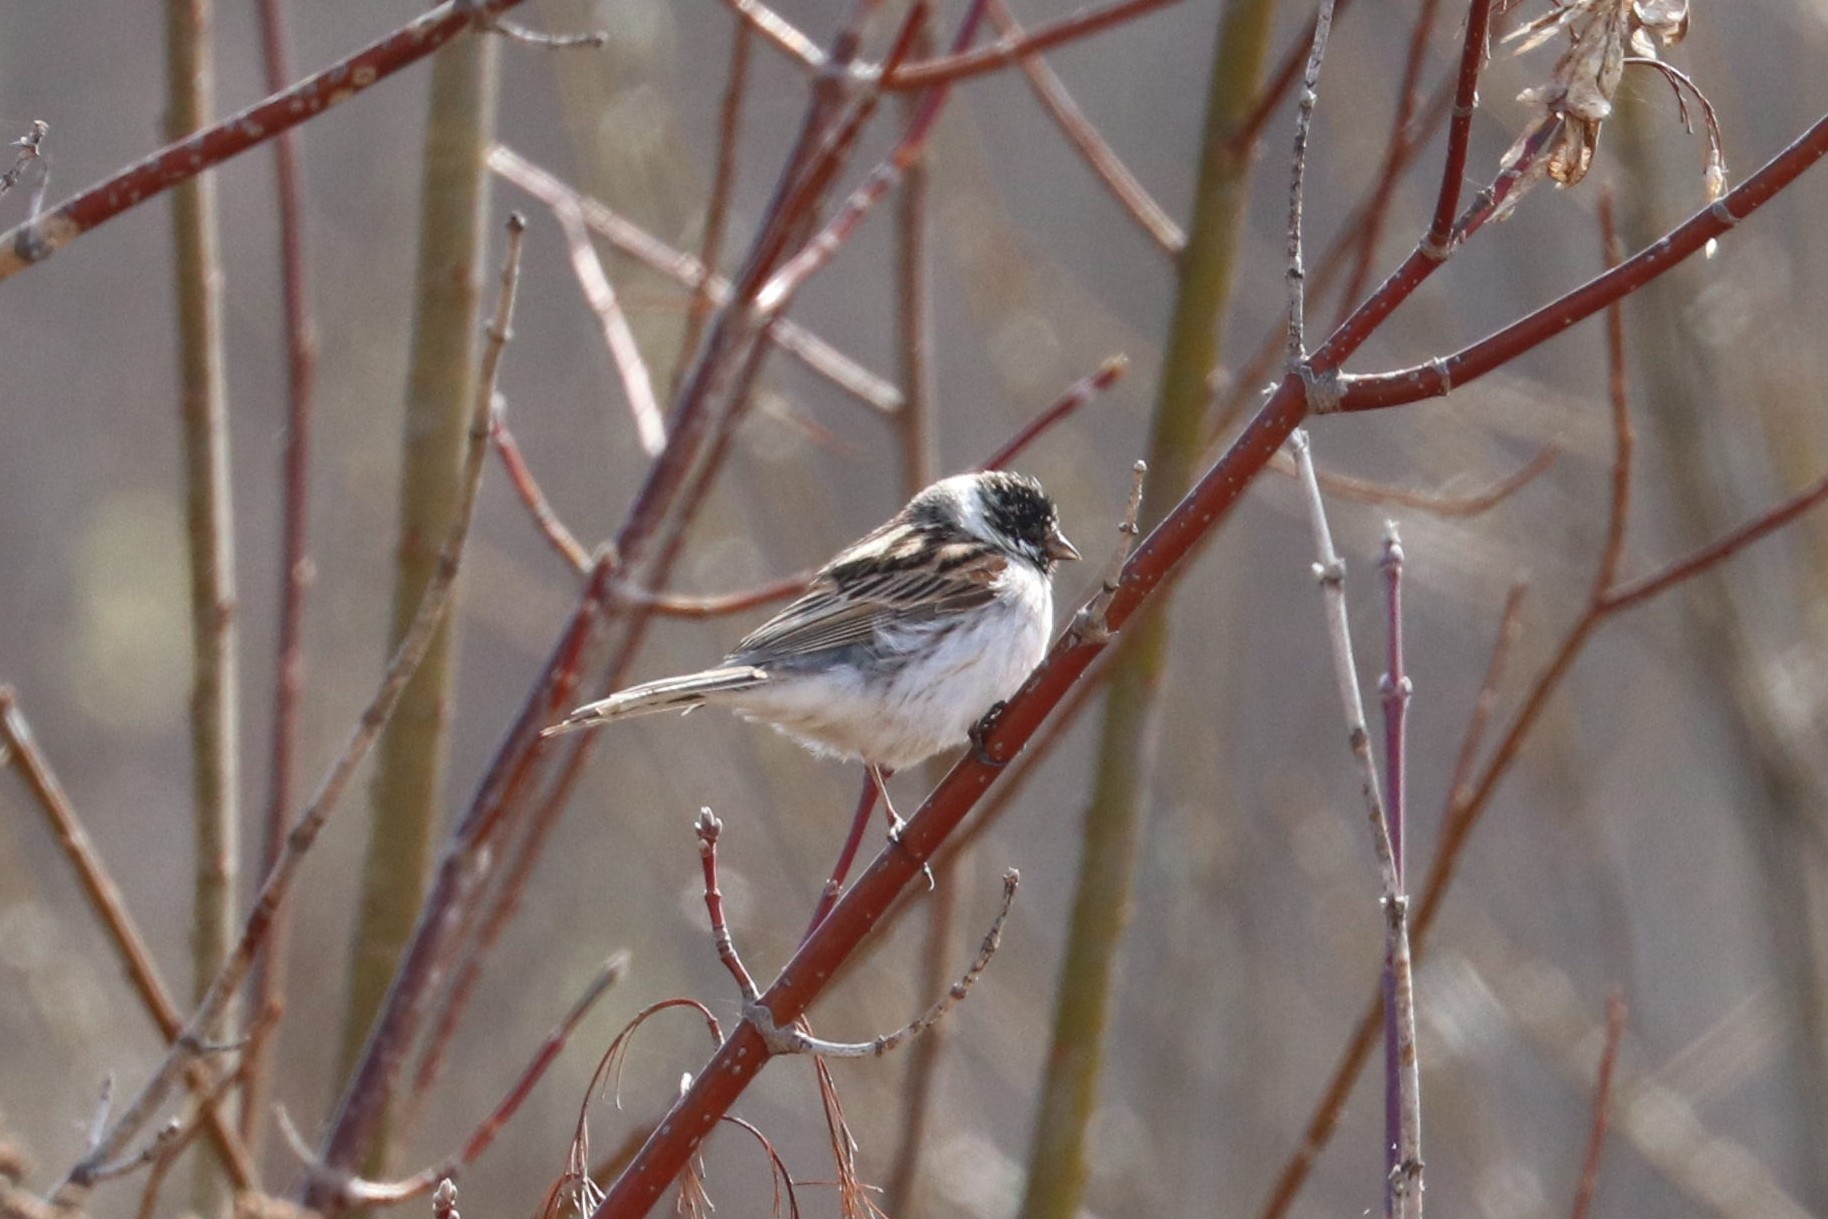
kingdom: Animalia
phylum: Chordata
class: Aves
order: Passeriformes
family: Emberizidae
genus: Emberiza
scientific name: Emberiza schoeniclus
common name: Reed bunting
